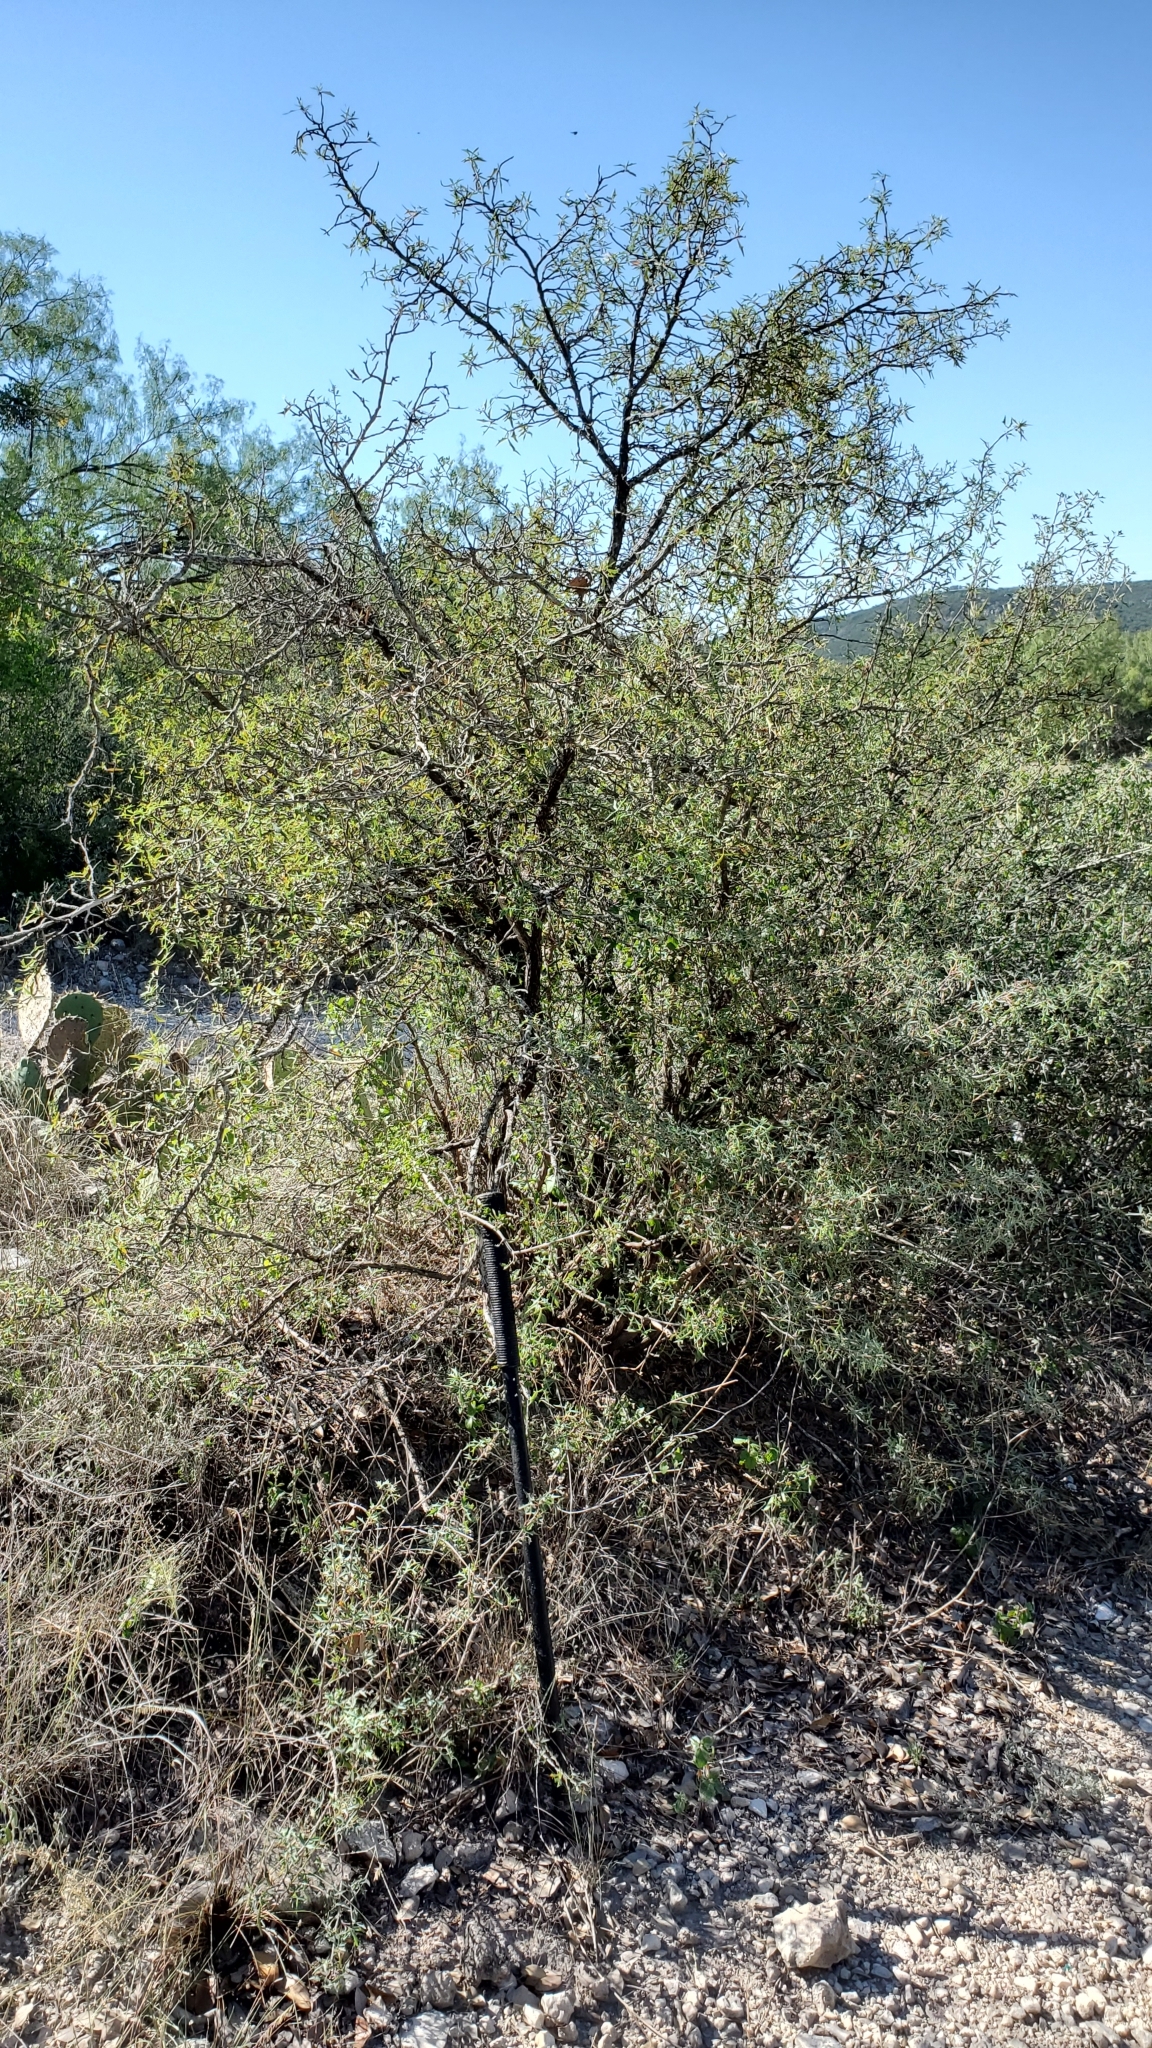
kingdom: Plantae
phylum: Tracheophyta
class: Magnoliopsida
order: Ranunculales
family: Berberidaceae
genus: Alloberberis
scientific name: Alloberberis trifoliolata
